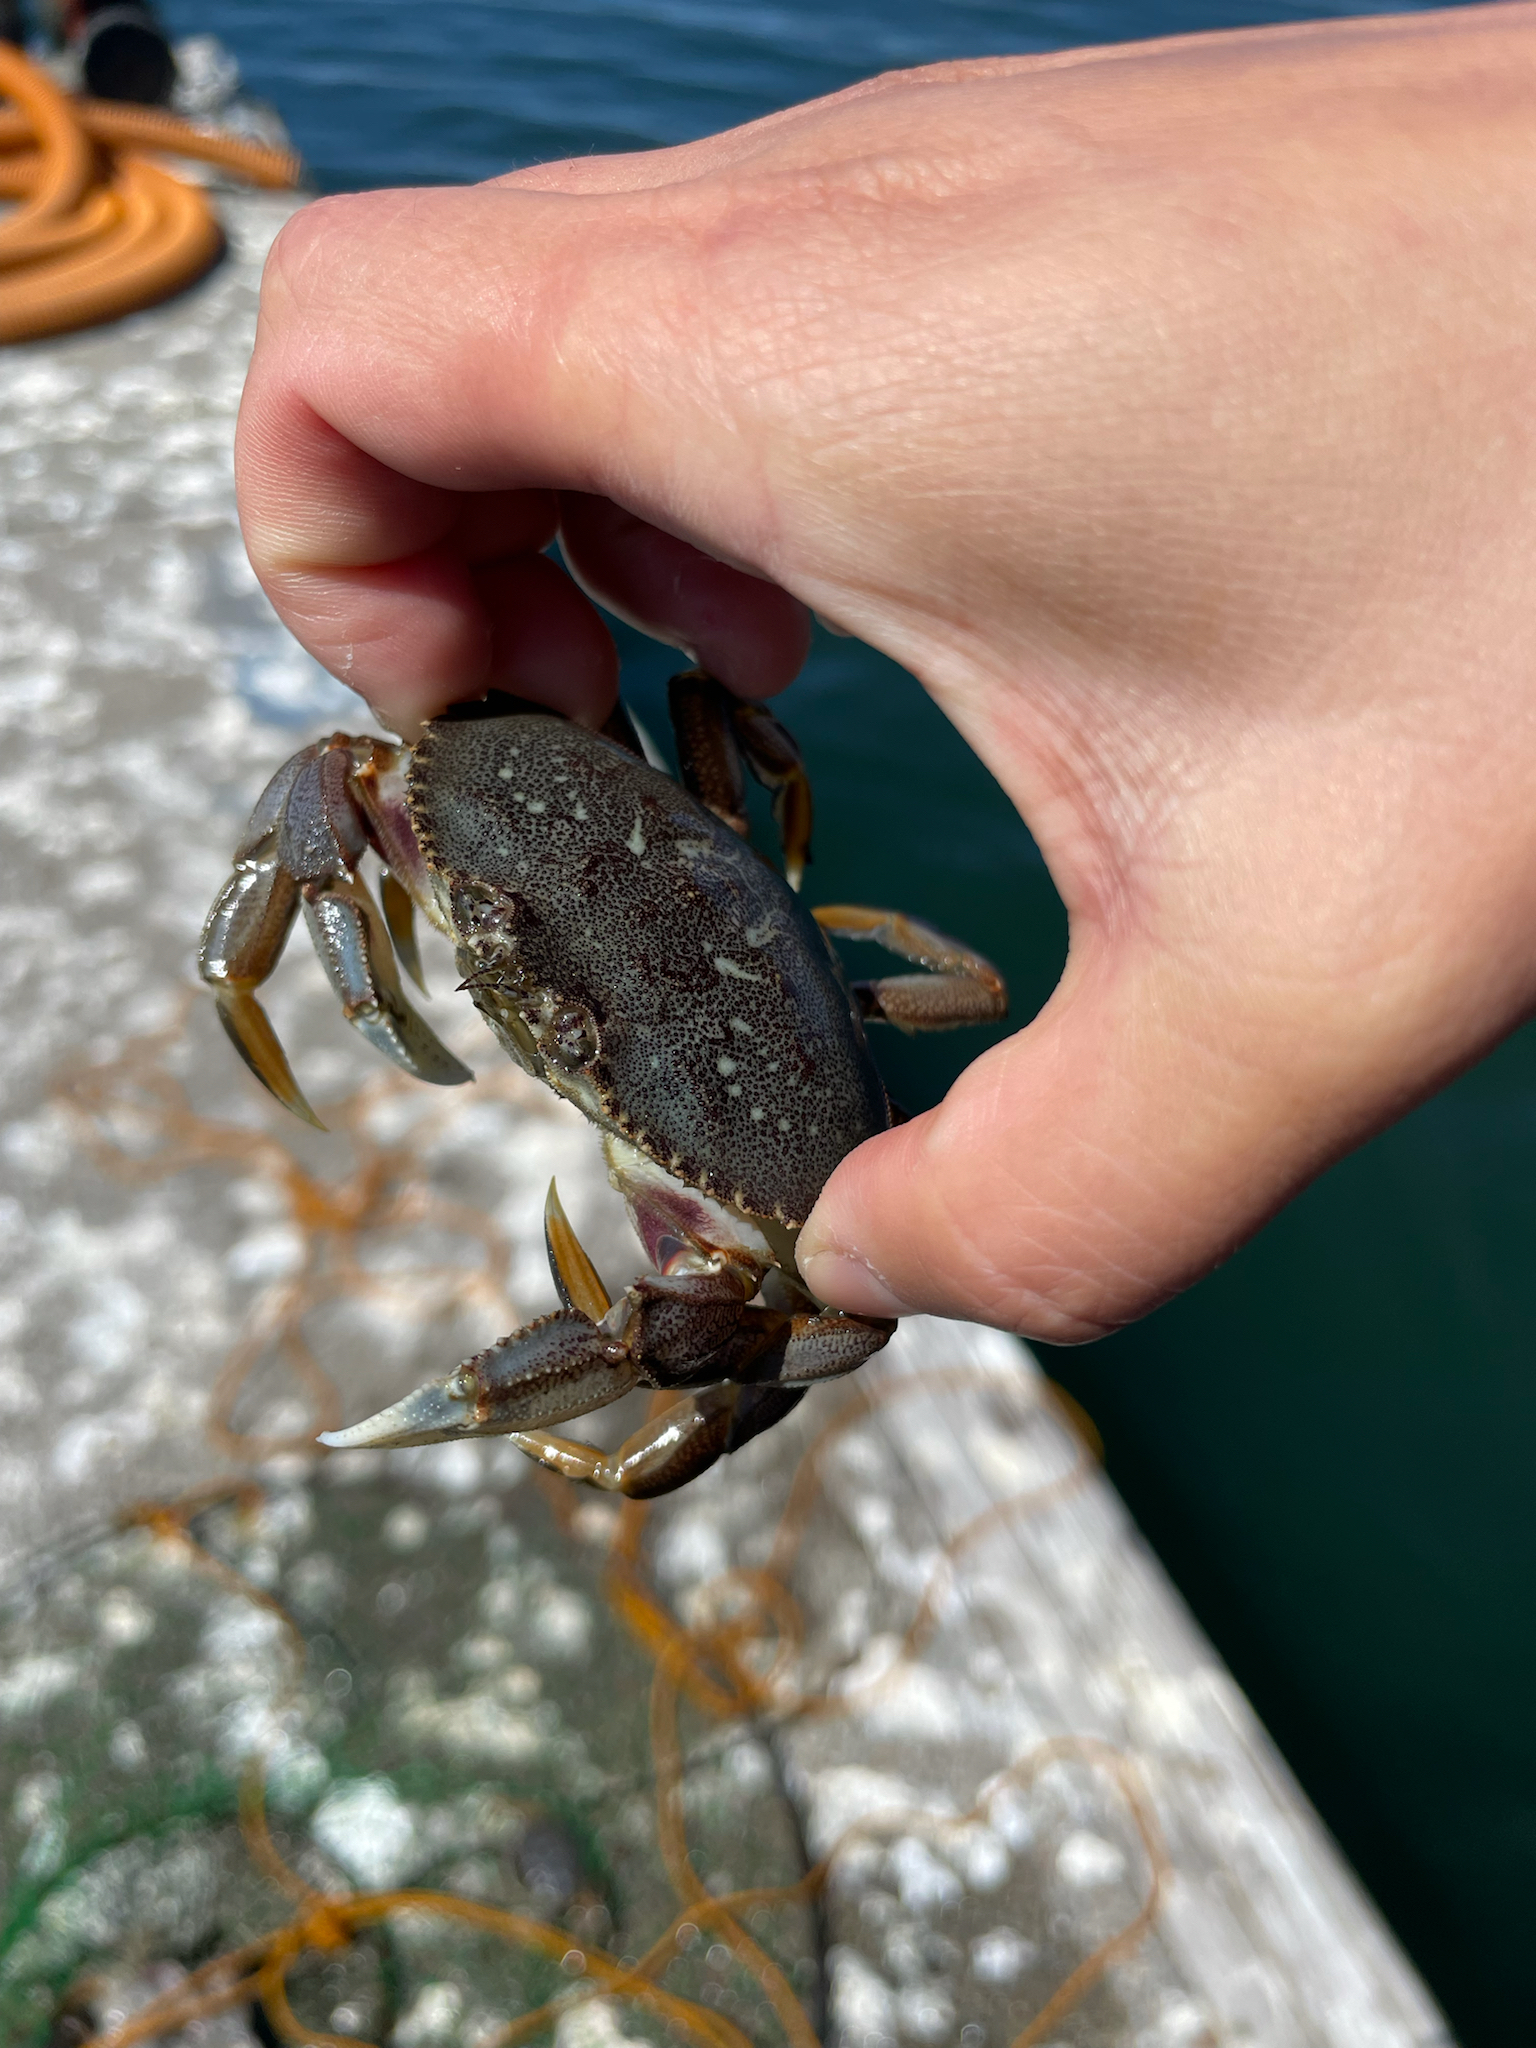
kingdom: Animalia
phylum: Arthropoda
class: Malacostraca
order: Decapoda
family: Cancridae
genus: Metacarcinus
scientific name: Metacarcinus magister
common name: Californian crab
